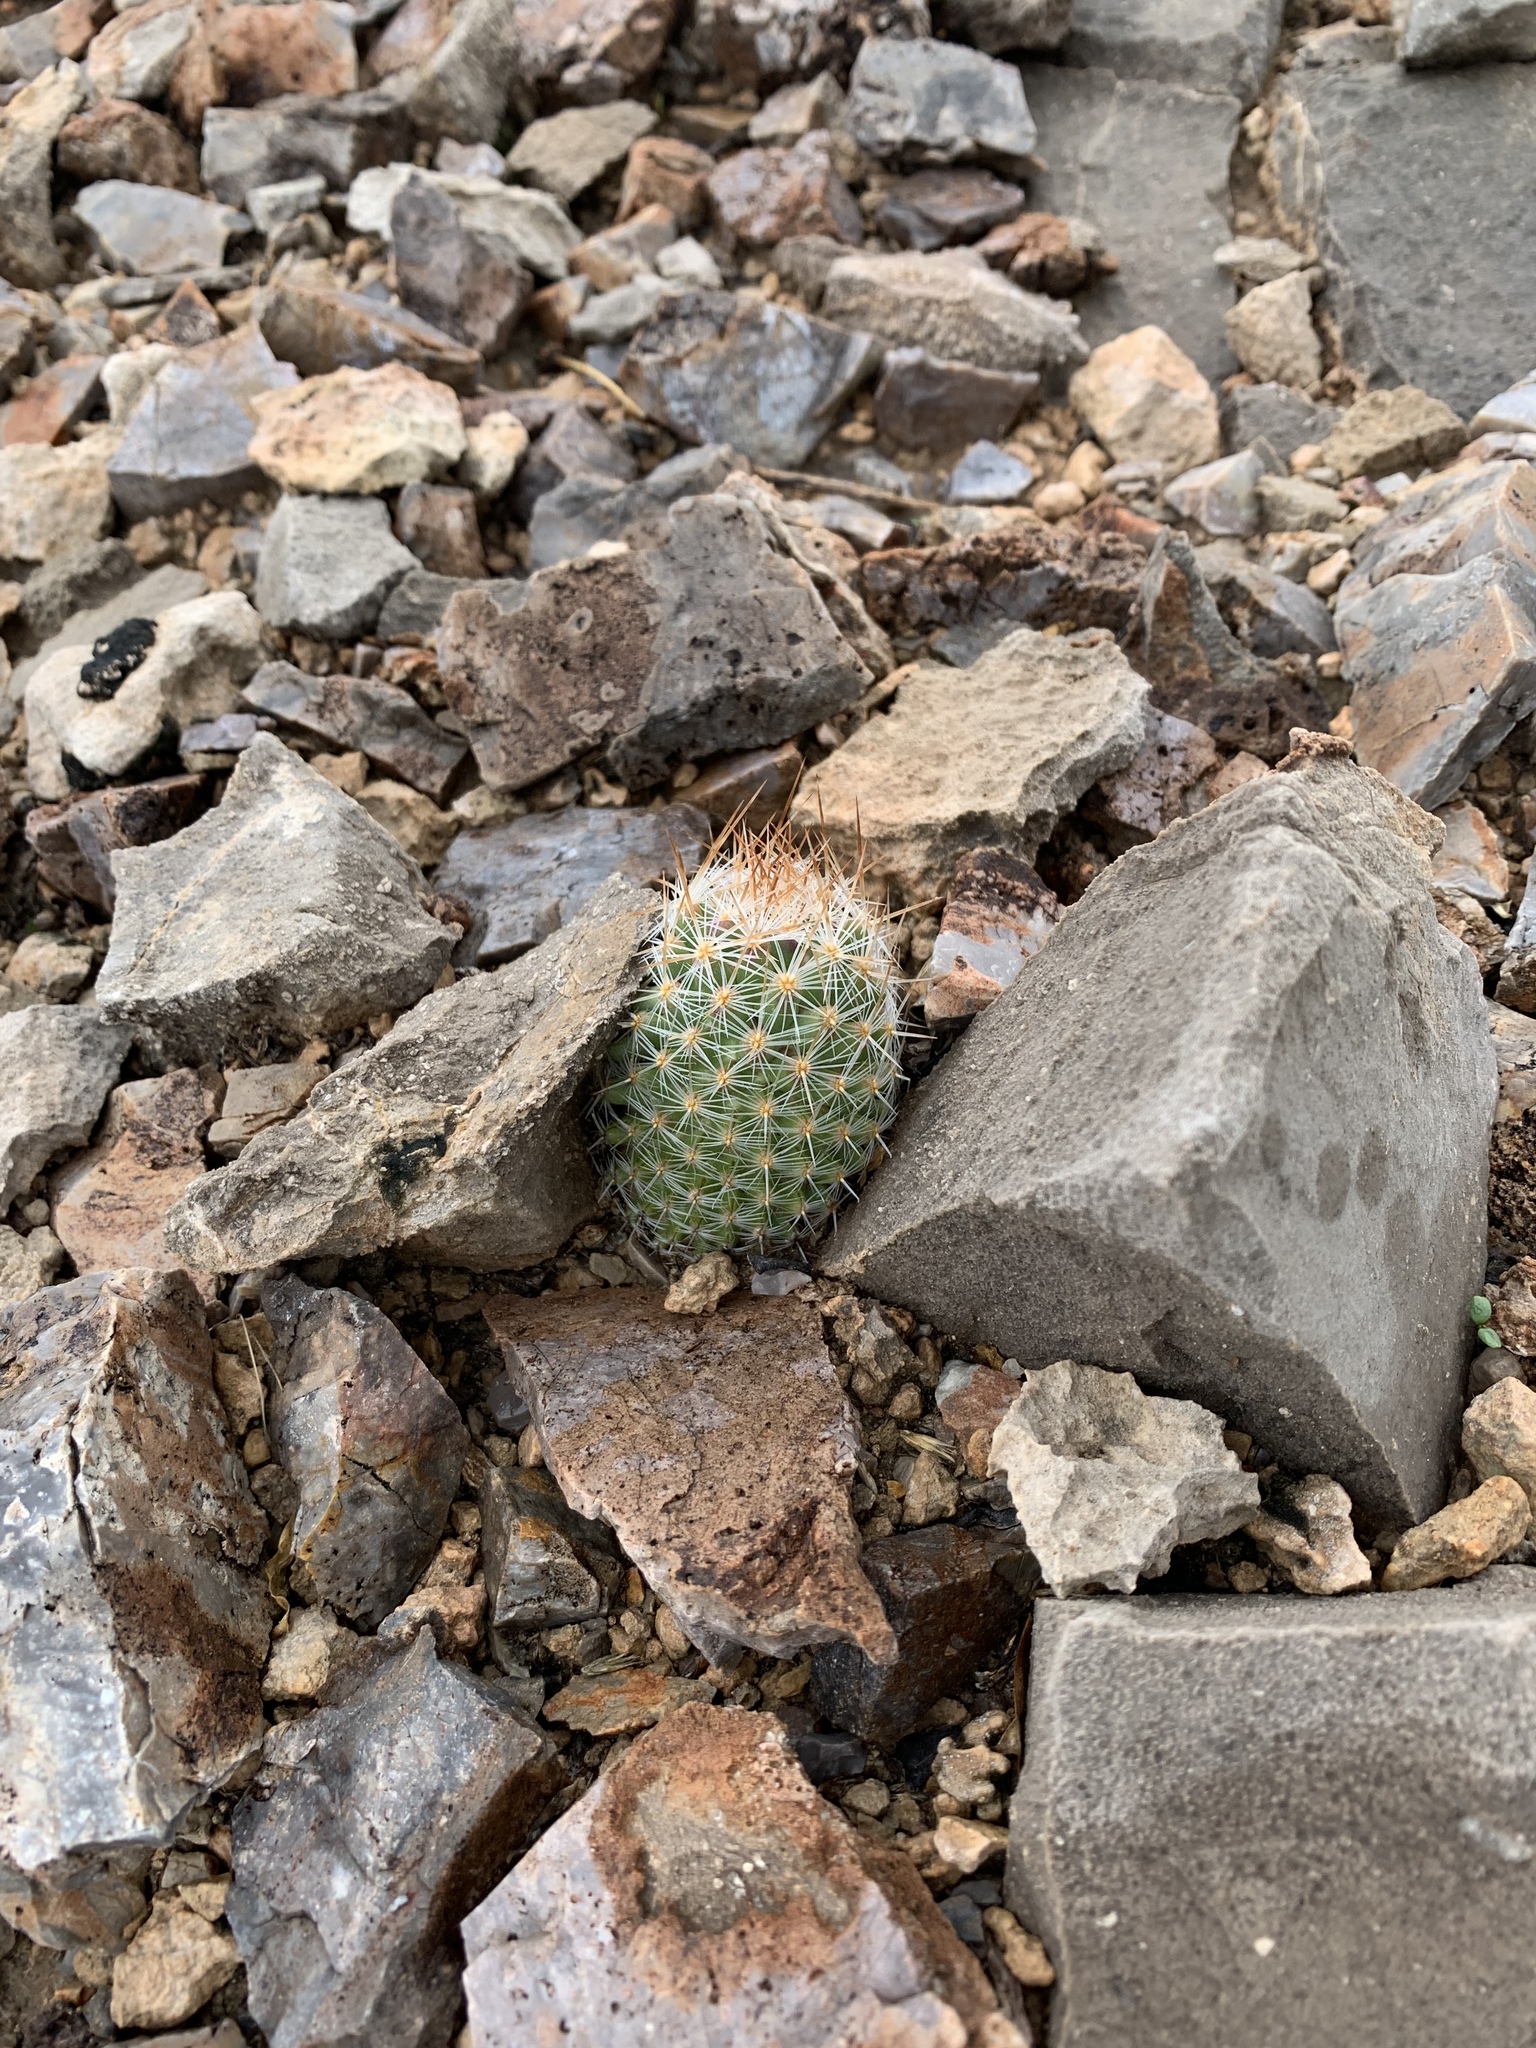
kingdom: Plantae
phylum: Tracheophyta
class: Magnoliopsida
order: Caryophyllales
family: Cactaceae
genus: Pelecyphora
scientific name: Pelecyphora tuberculosa
